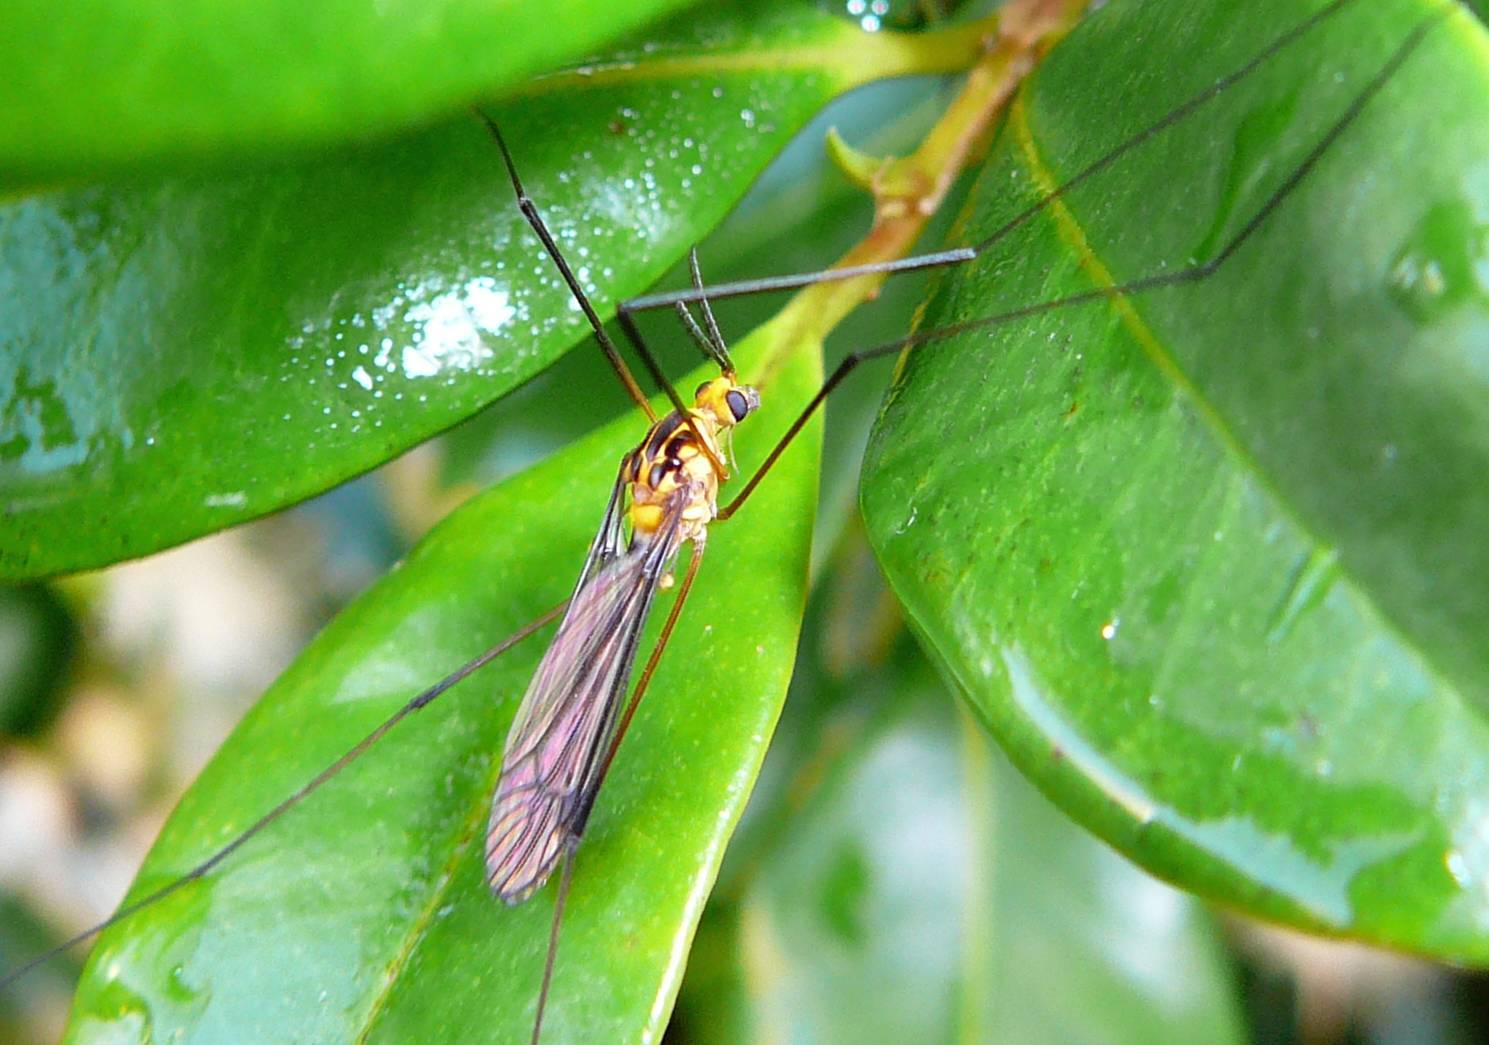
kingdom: Animalia
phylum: Arthropoda
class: Insecta
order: Diptera
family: Tipulidae
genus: Nephrotoma
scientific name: Nephrotoma australasiae
